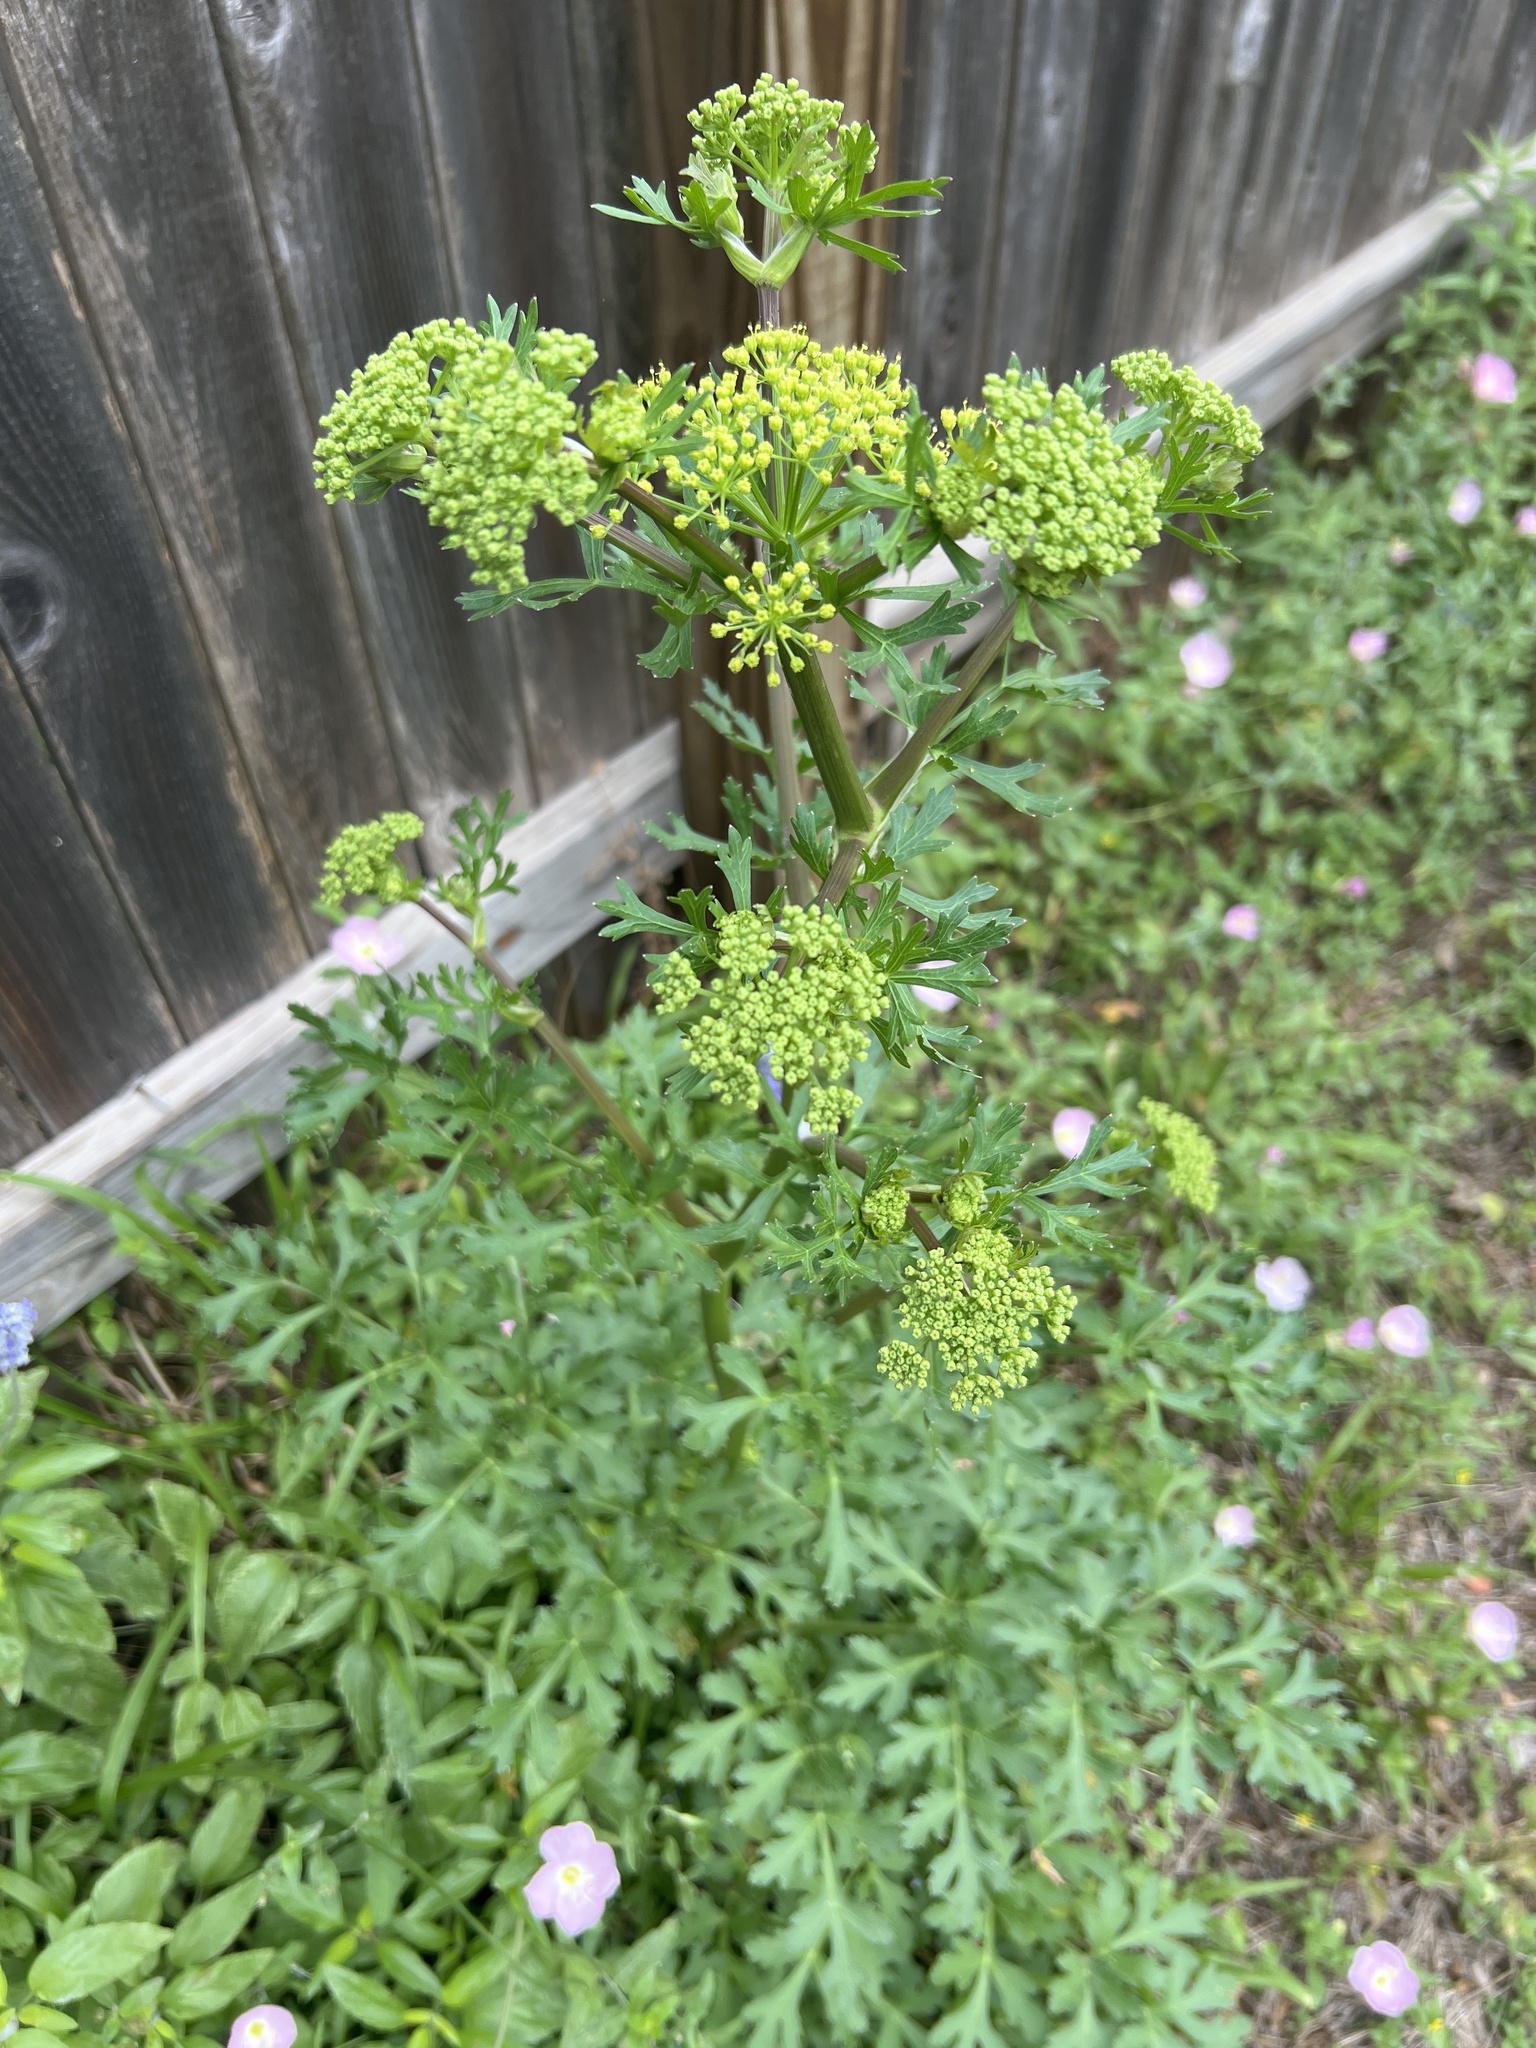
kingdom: Plantae
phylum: Tracheophyta
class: Magnoliopsida
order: Apiales
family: Apiaceae
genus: Polytaenia
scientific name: Polytaenia texana
